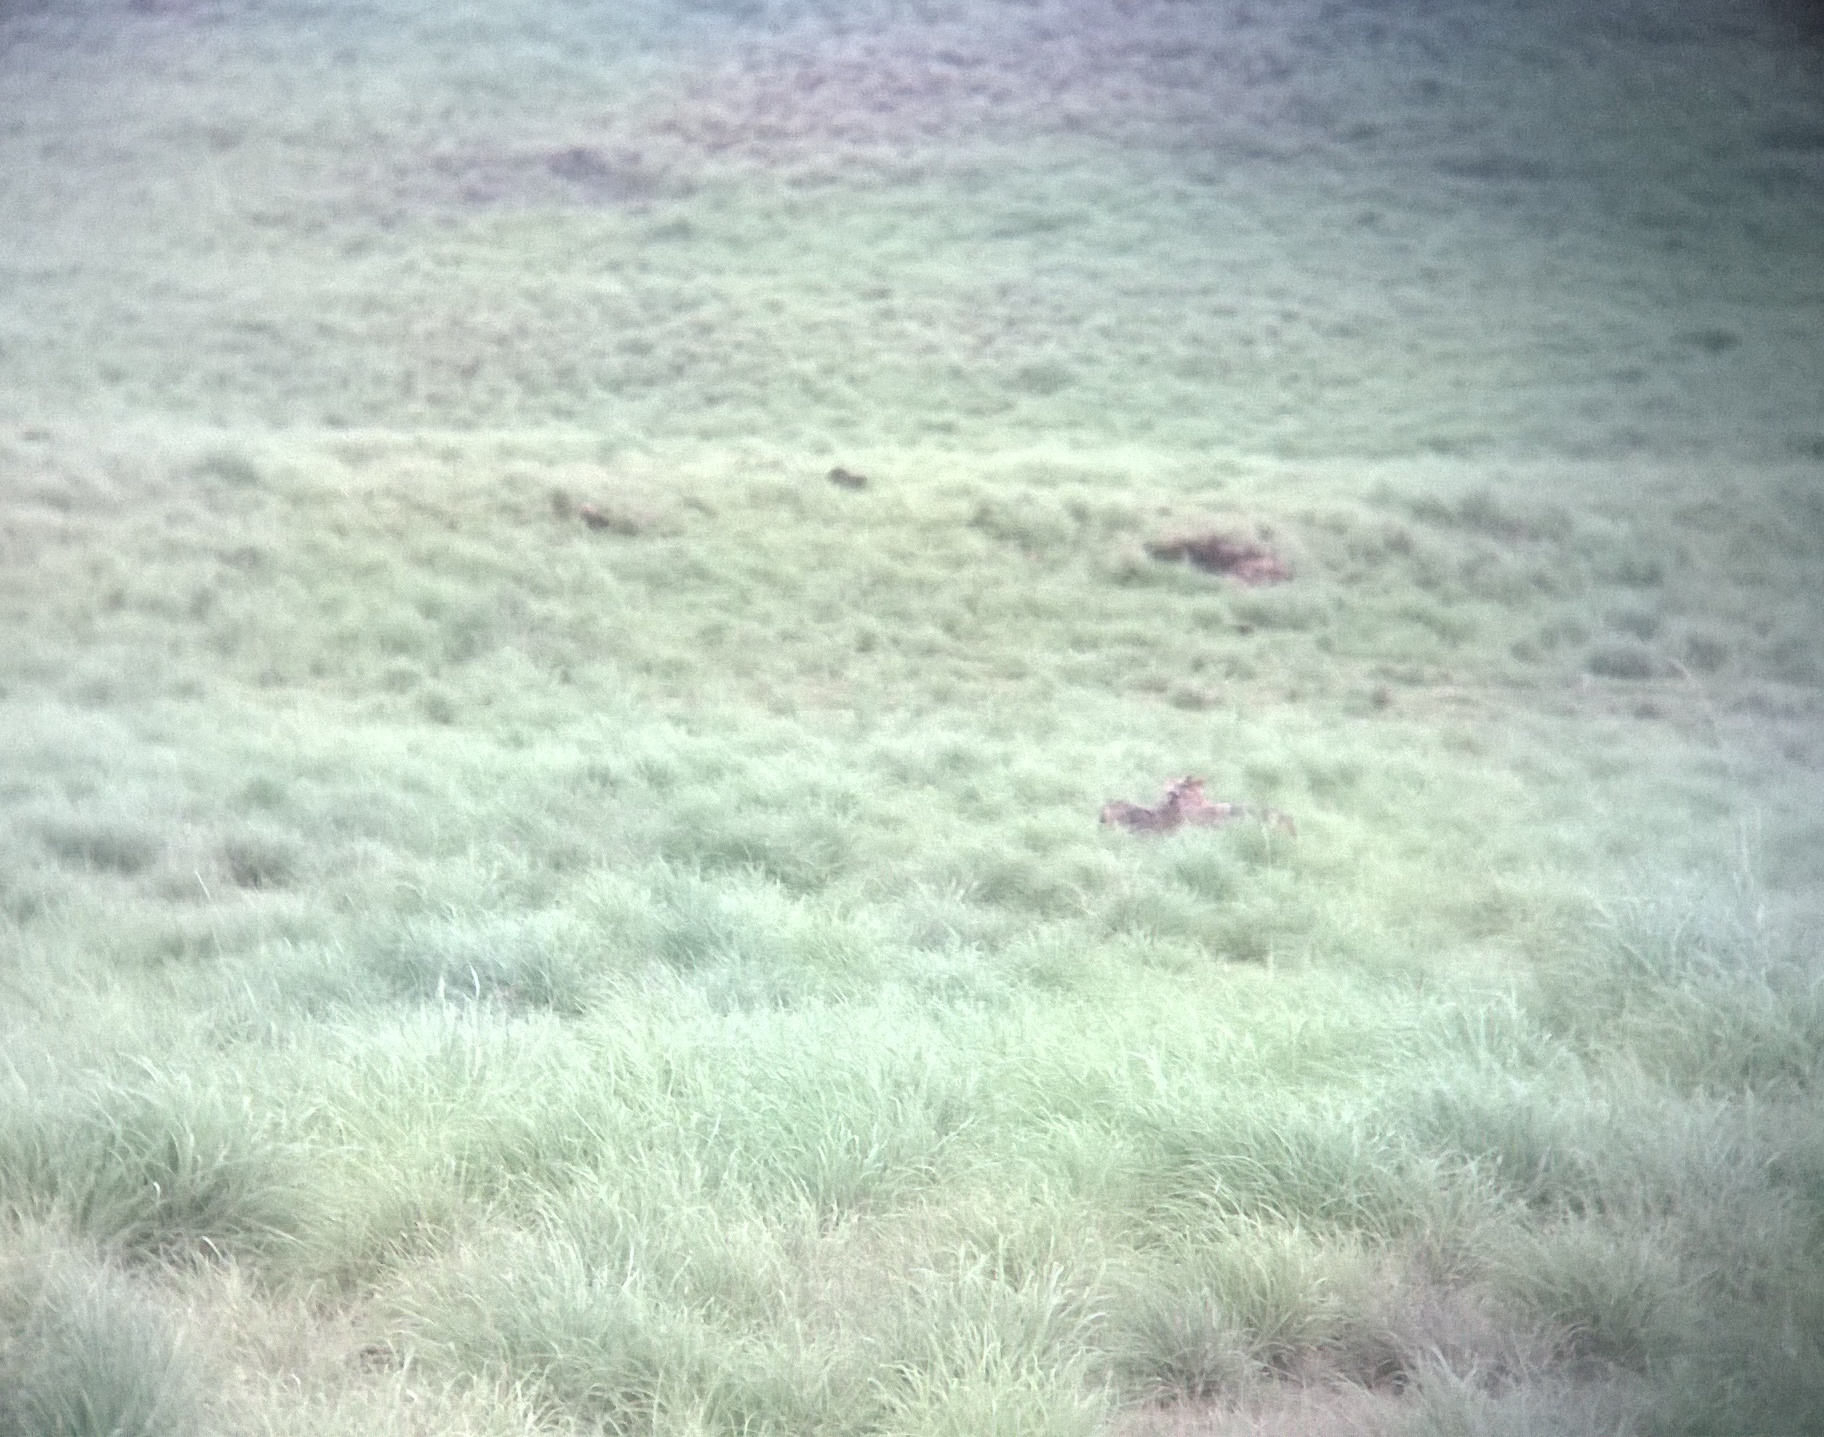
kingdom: Animalia
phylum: Chordata
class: Mammalia
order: Carnivora
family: Canidae
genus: Canis
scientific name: Canis aureus
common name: Golden jackal
